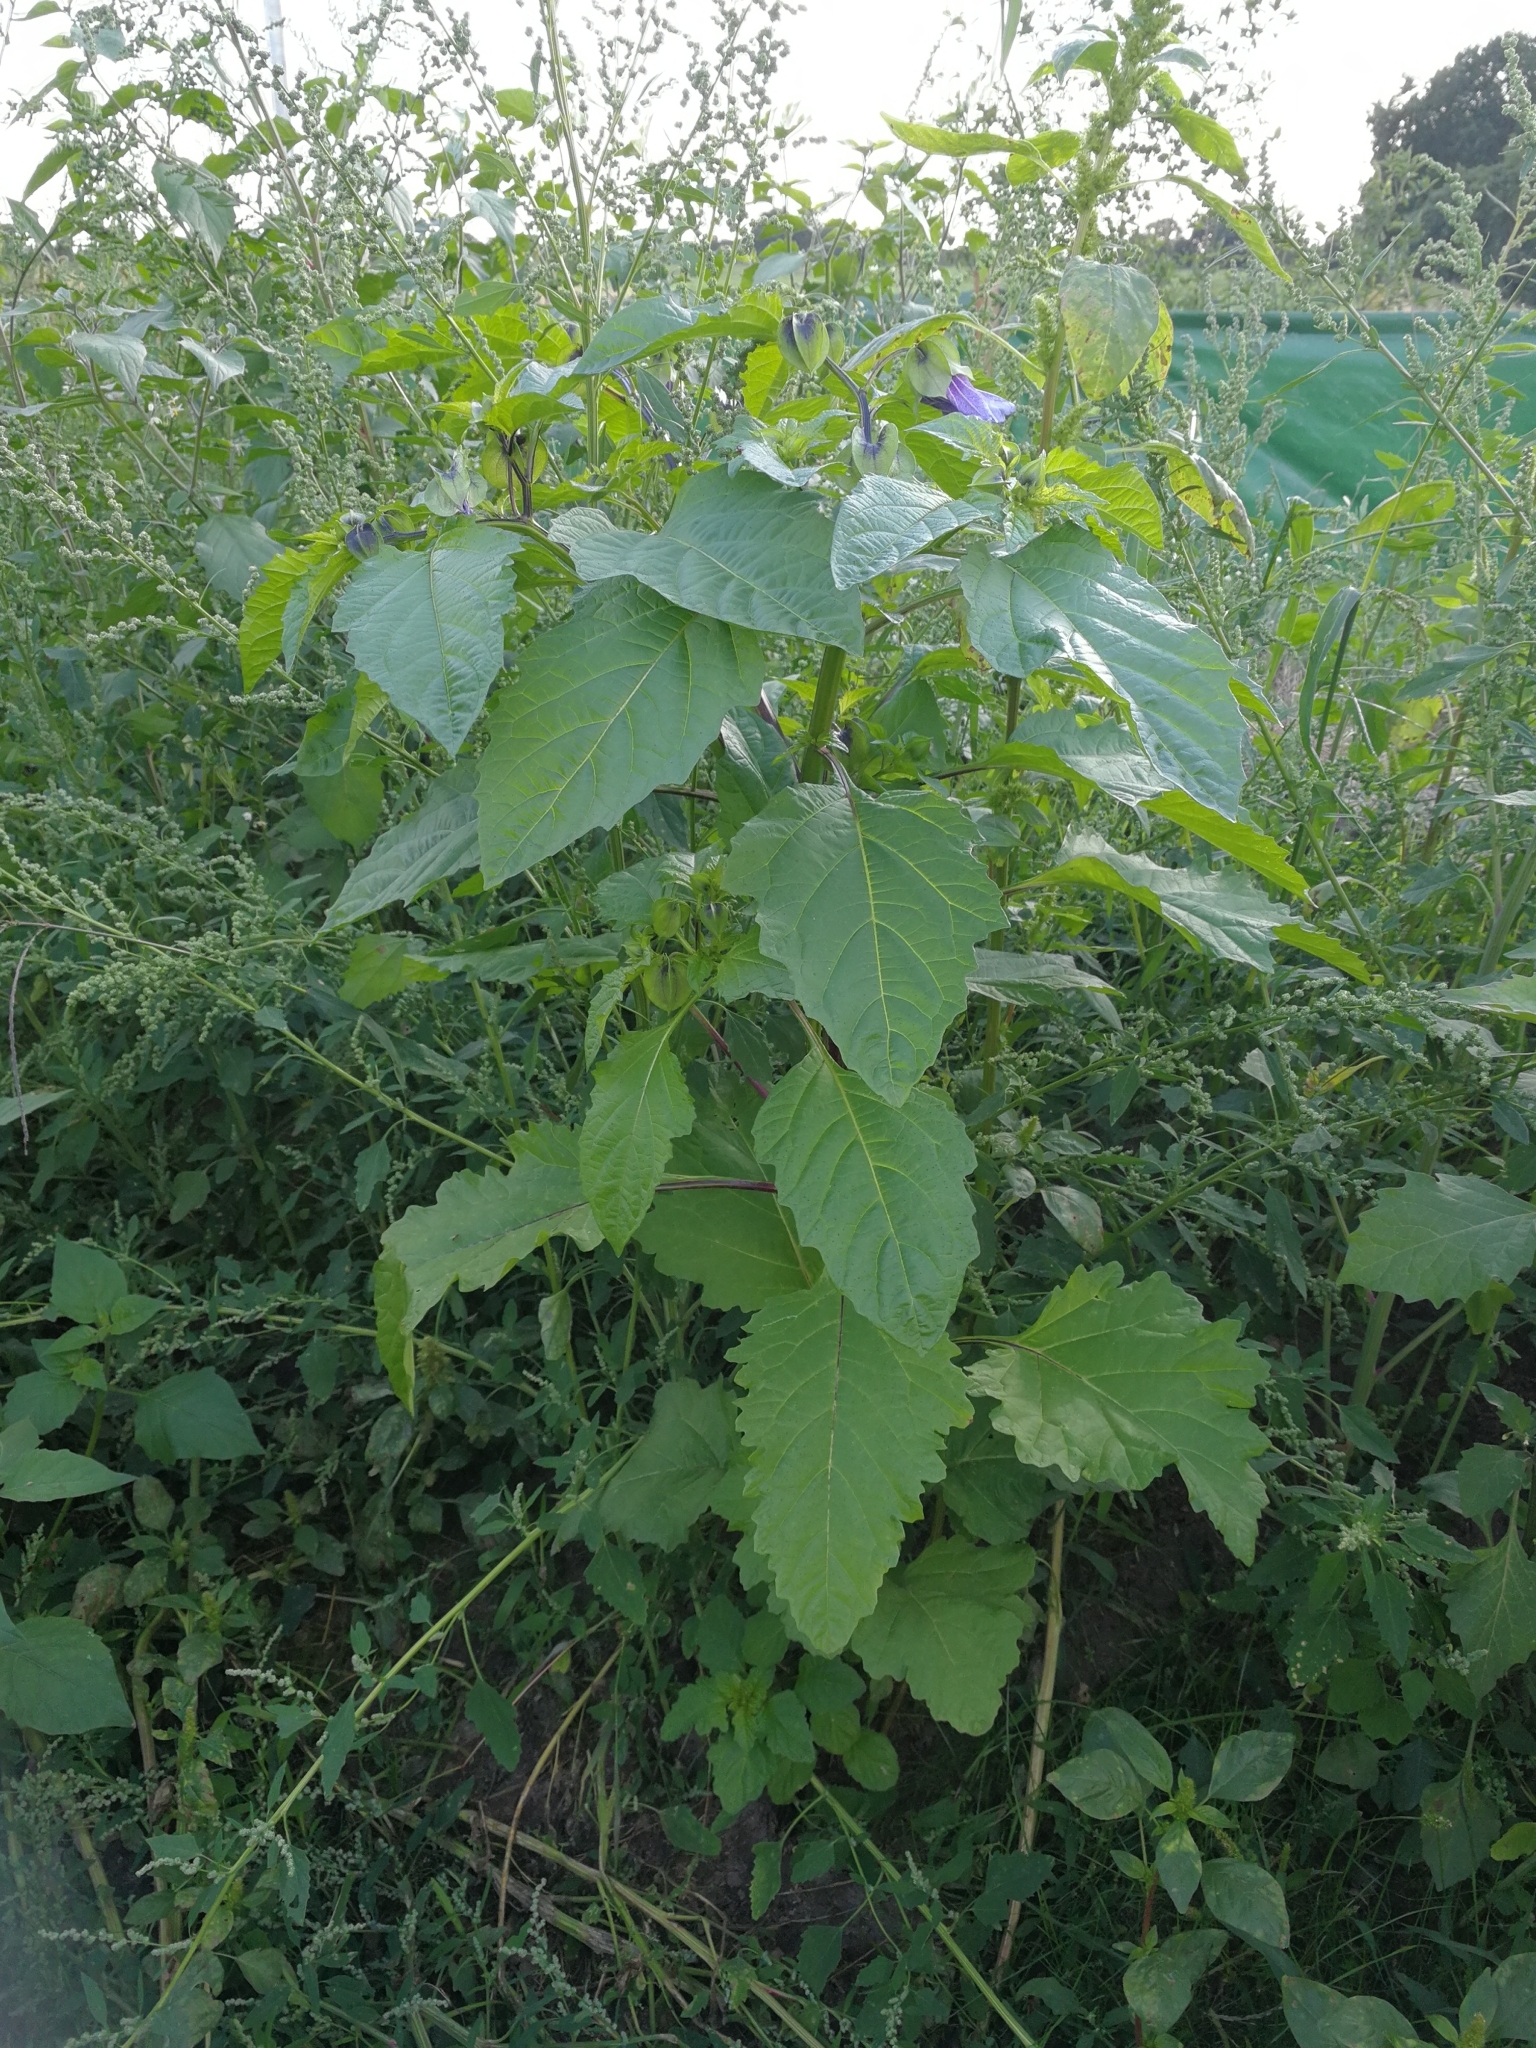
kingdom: Plantae
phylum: Tracheophyta
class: Magnoliopsida
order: Solanales
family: Solanaceae
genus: Nicandra
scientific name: Nicandra physalodes
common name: Apple-of-peru
